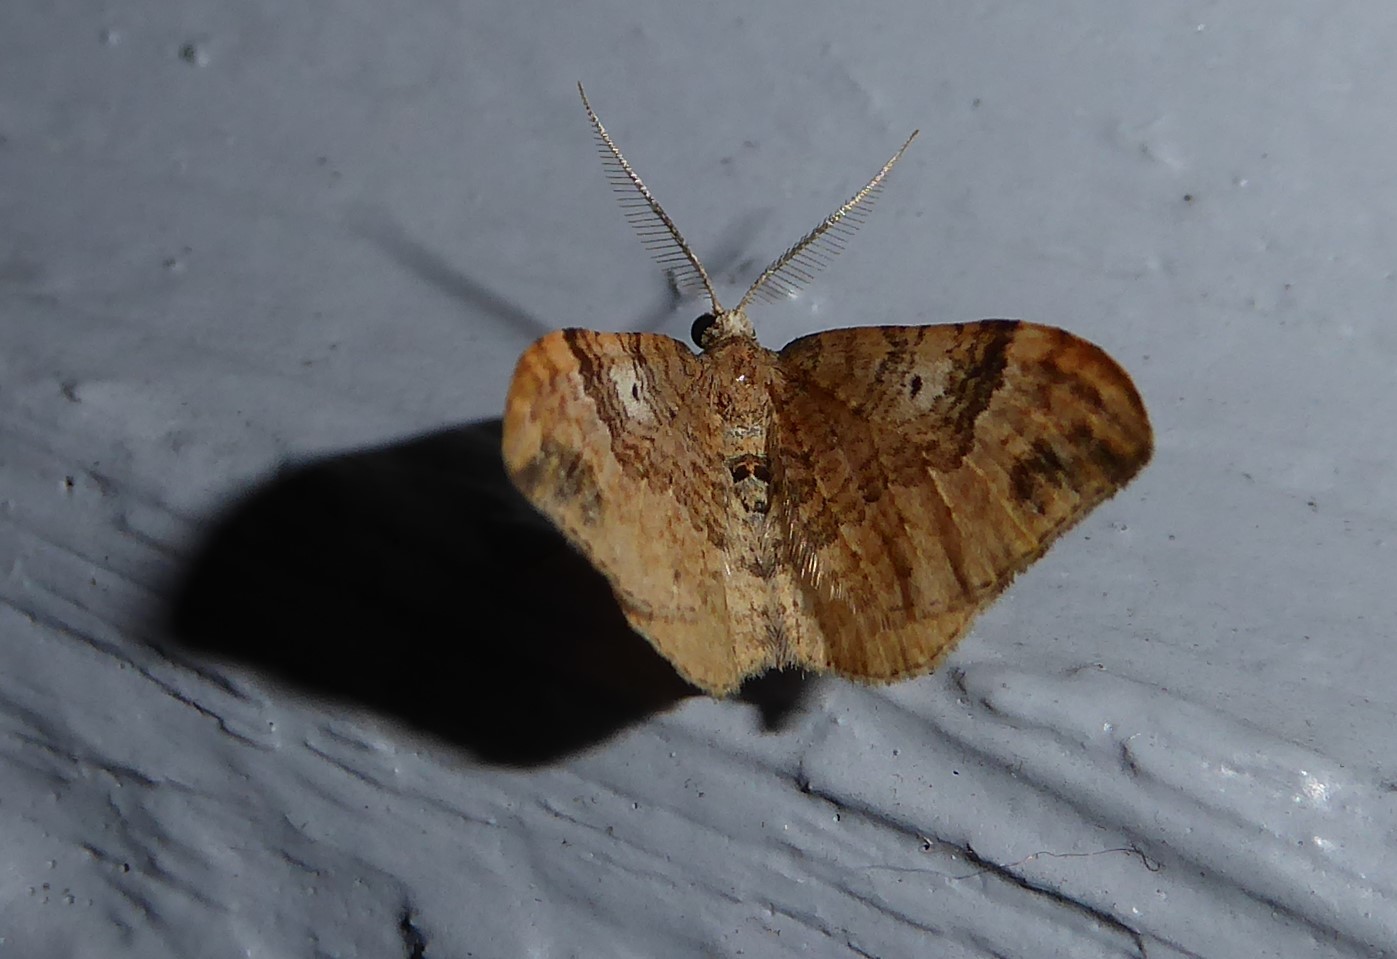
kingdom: Animalia
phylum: Arthropoda
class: Insecta
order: Lepidoptera
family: Geometridae
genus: Homodotis
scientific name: Homodotis megaspilata
